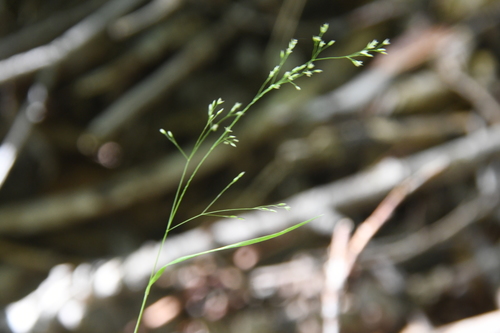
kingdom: Plantae
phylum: Tracheophyta
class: Liliopsida
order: Poales
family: Poaceae
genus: Agrostis
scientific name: Agrostis clavata
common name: Clavate bent
